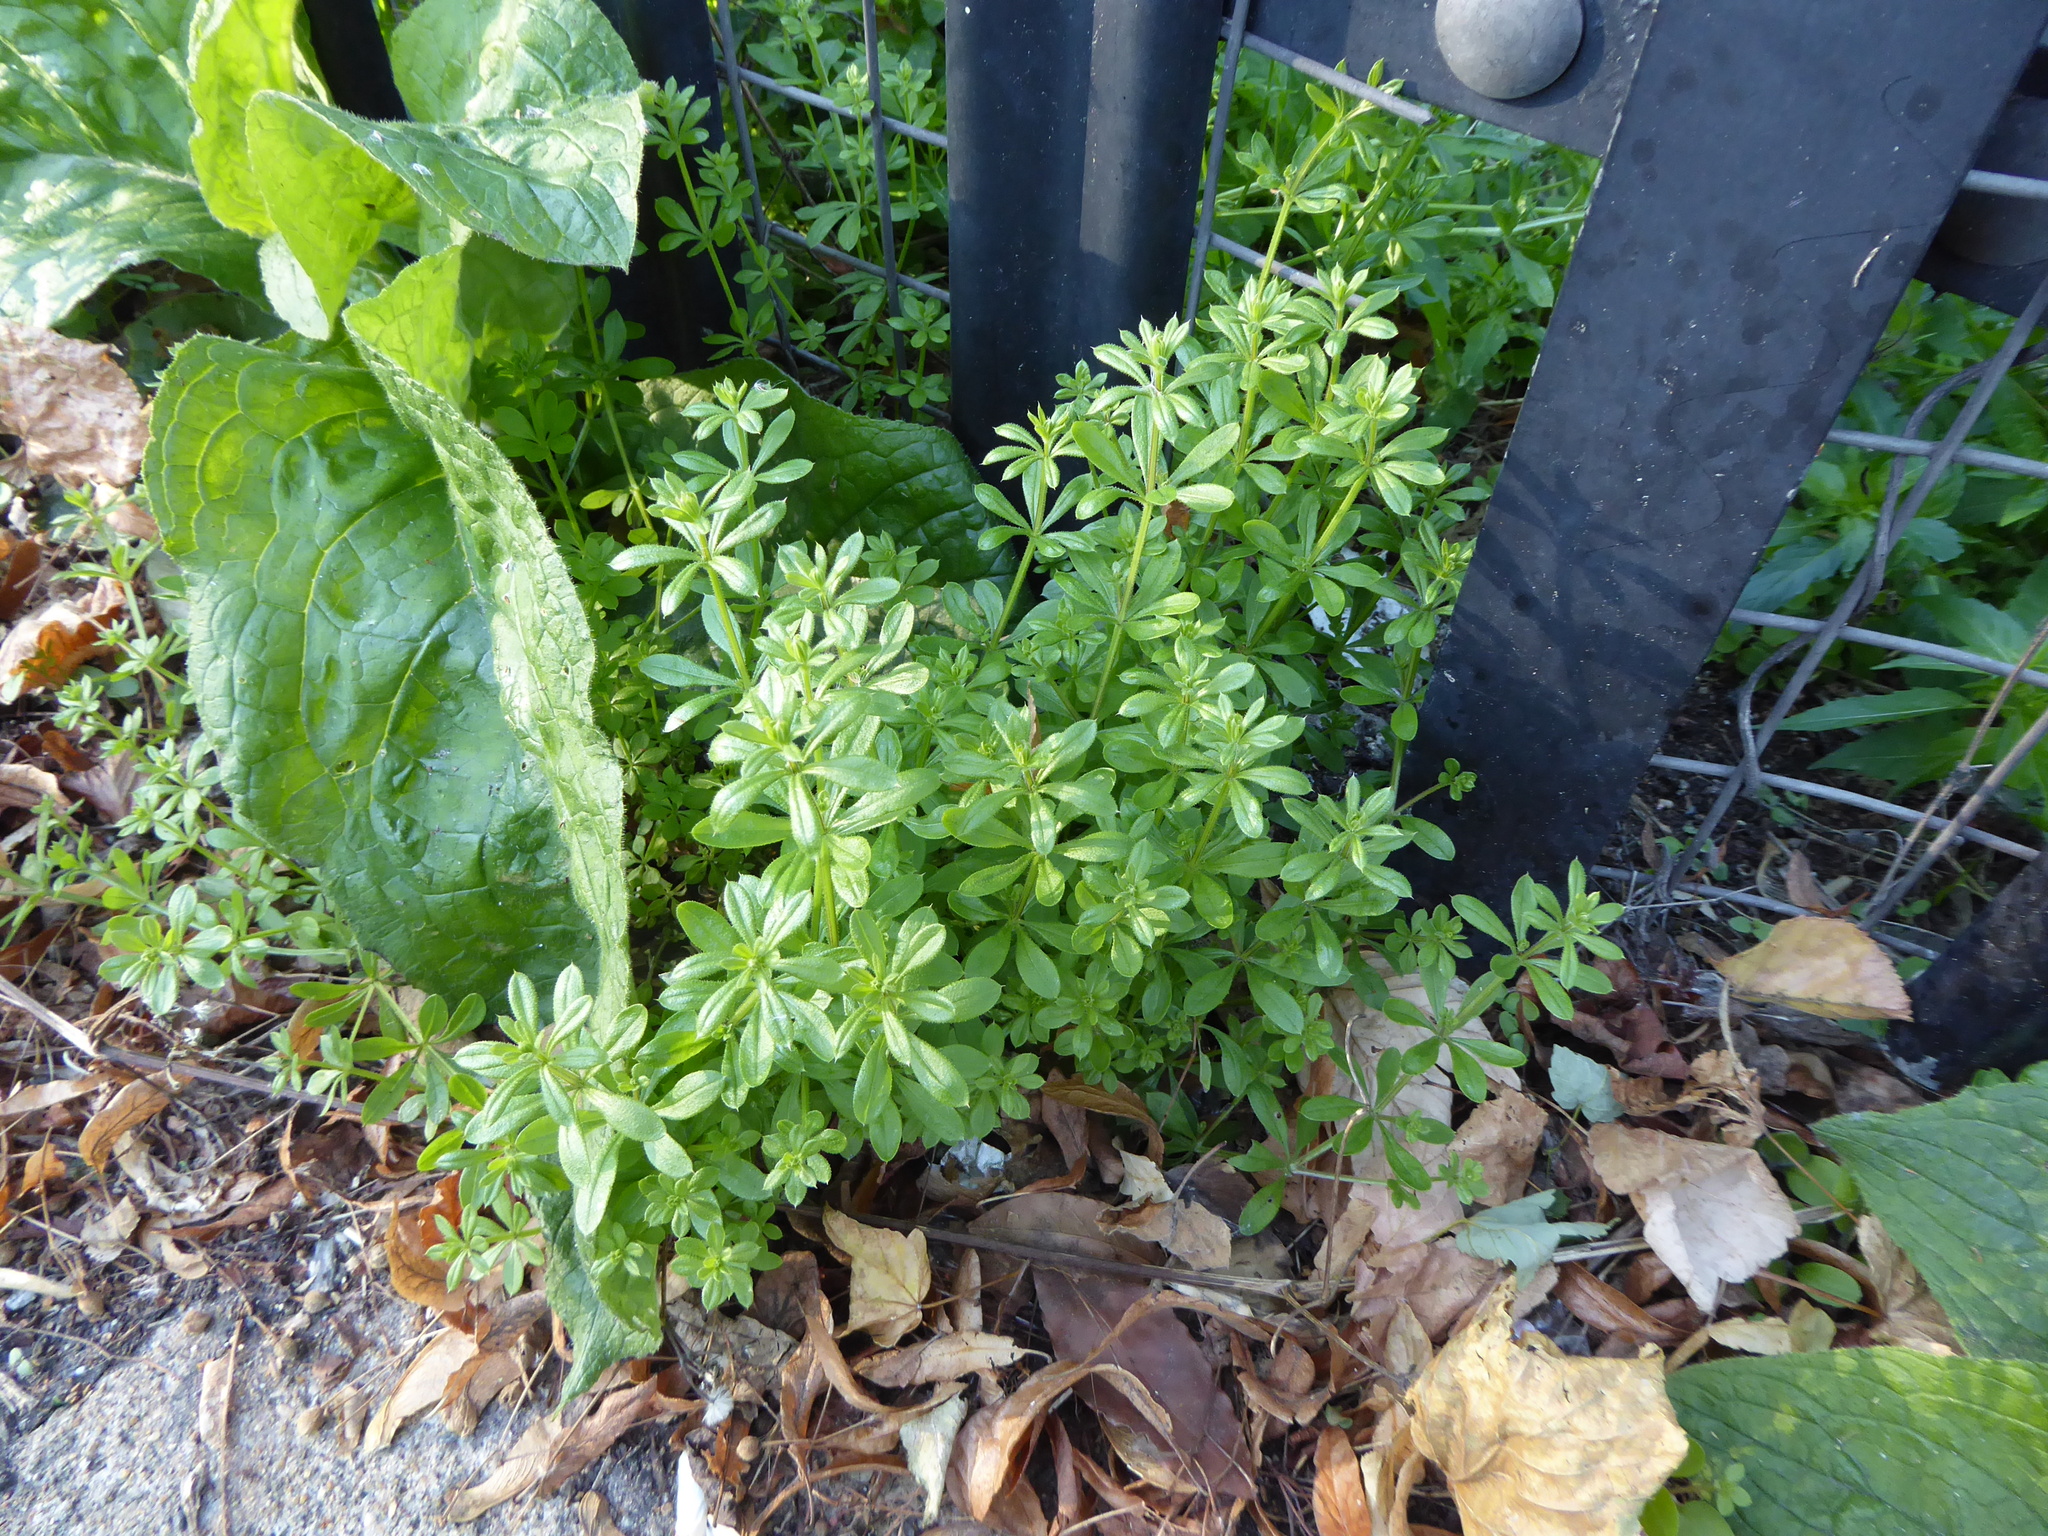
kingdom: Plantae
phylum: Tracheophyta
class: Magnoliopsida
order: Gentianales
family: Rubiaceae
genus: Galium
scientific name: Galium aparine
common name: Cleavers
